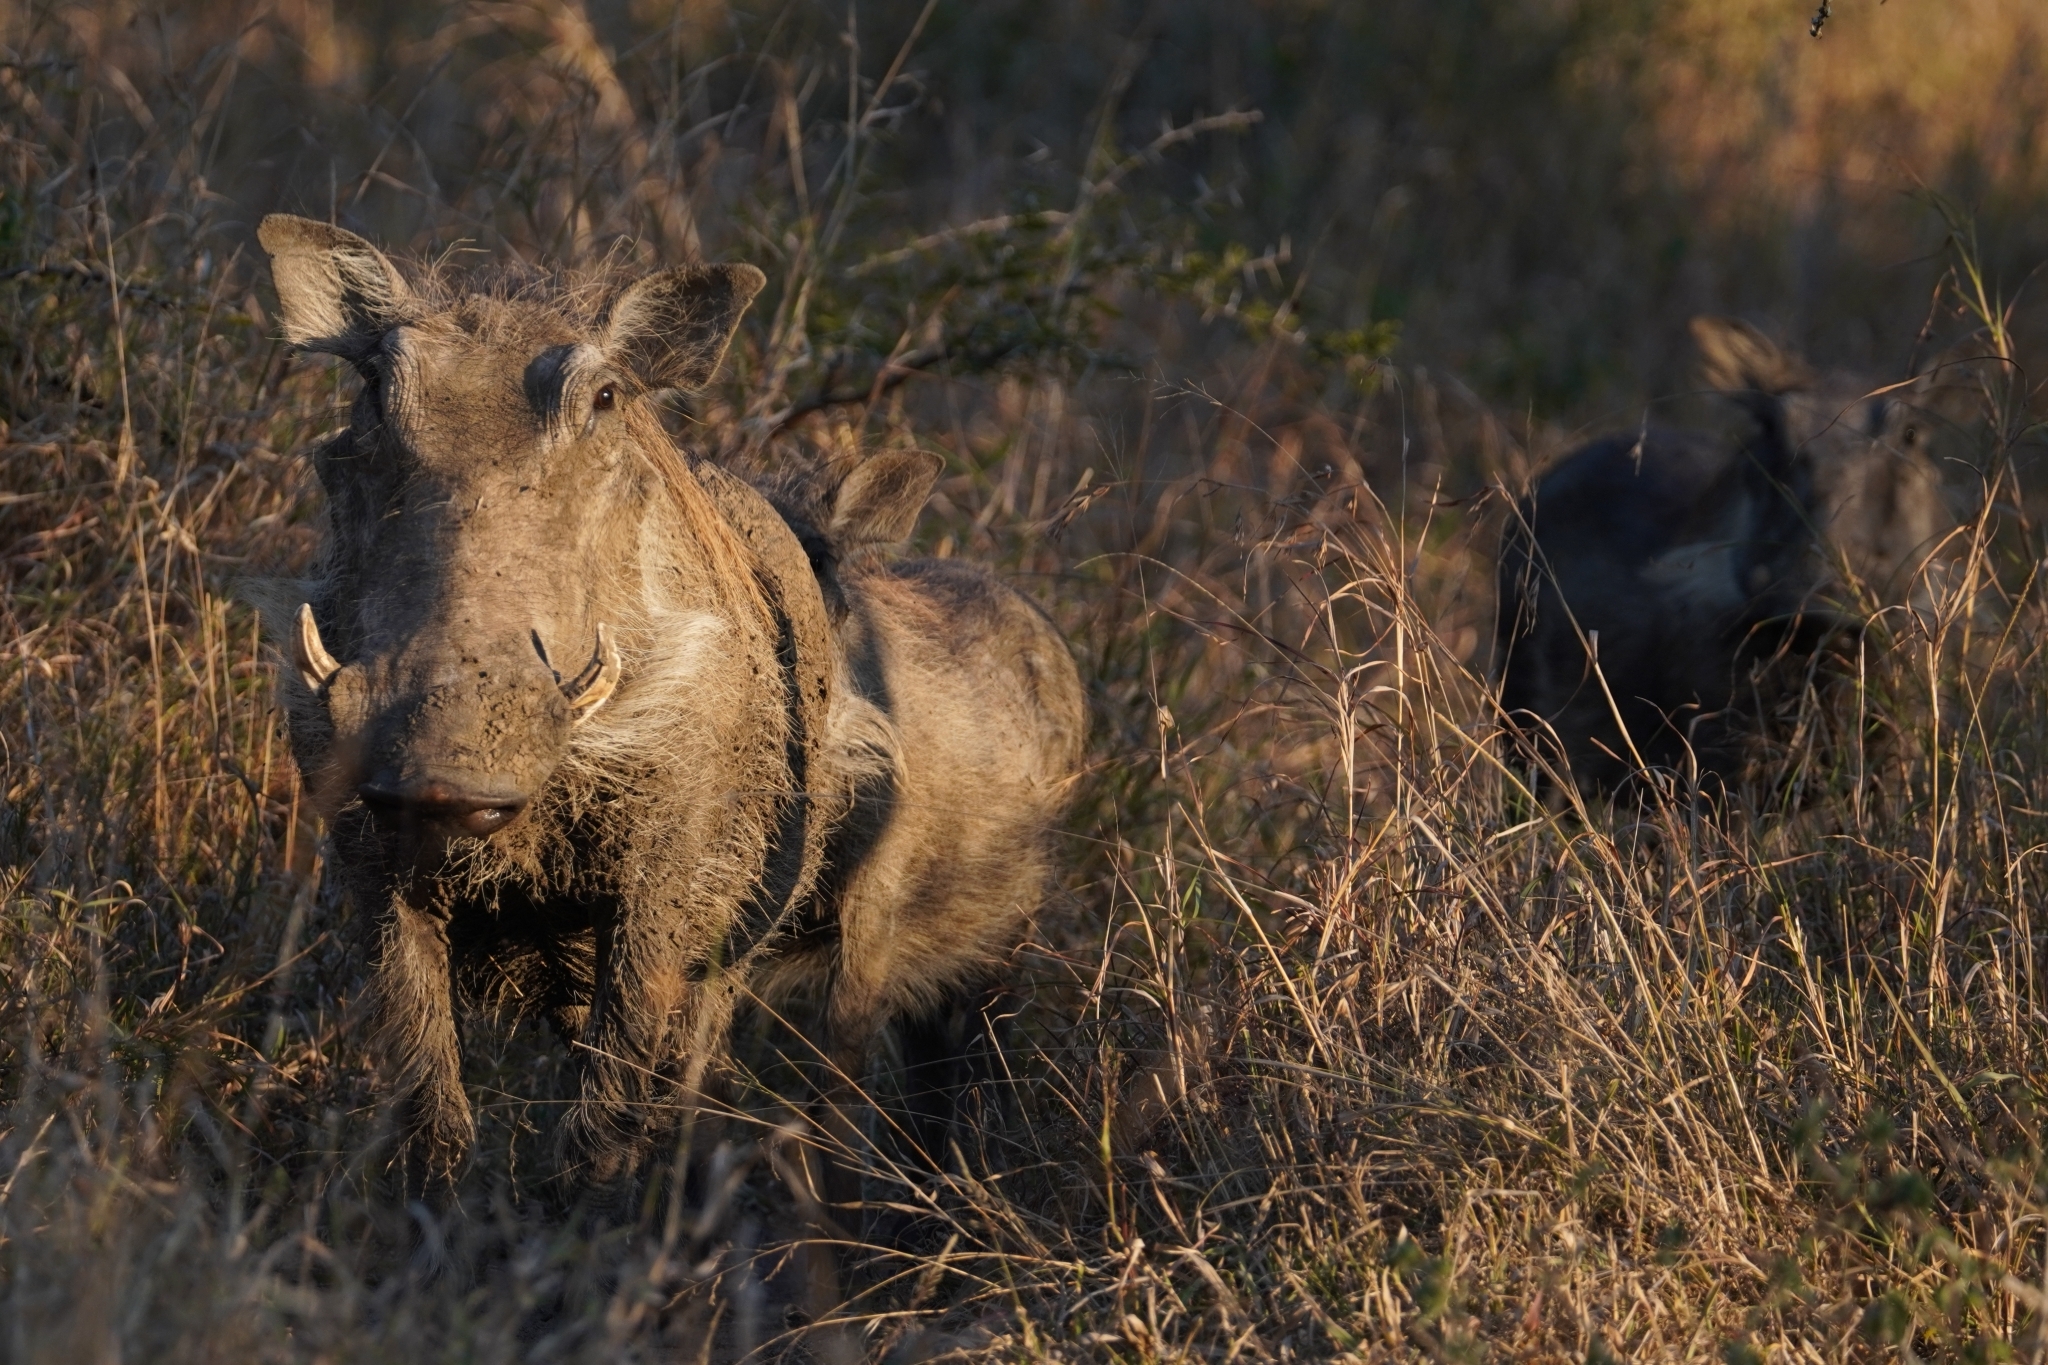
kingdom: Animalia
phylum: Chordata
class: Mammalia
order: Artiodactyla
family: Suidae
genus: Phacochoerus
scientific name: Phacochoerus africanus
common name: Common warthog
